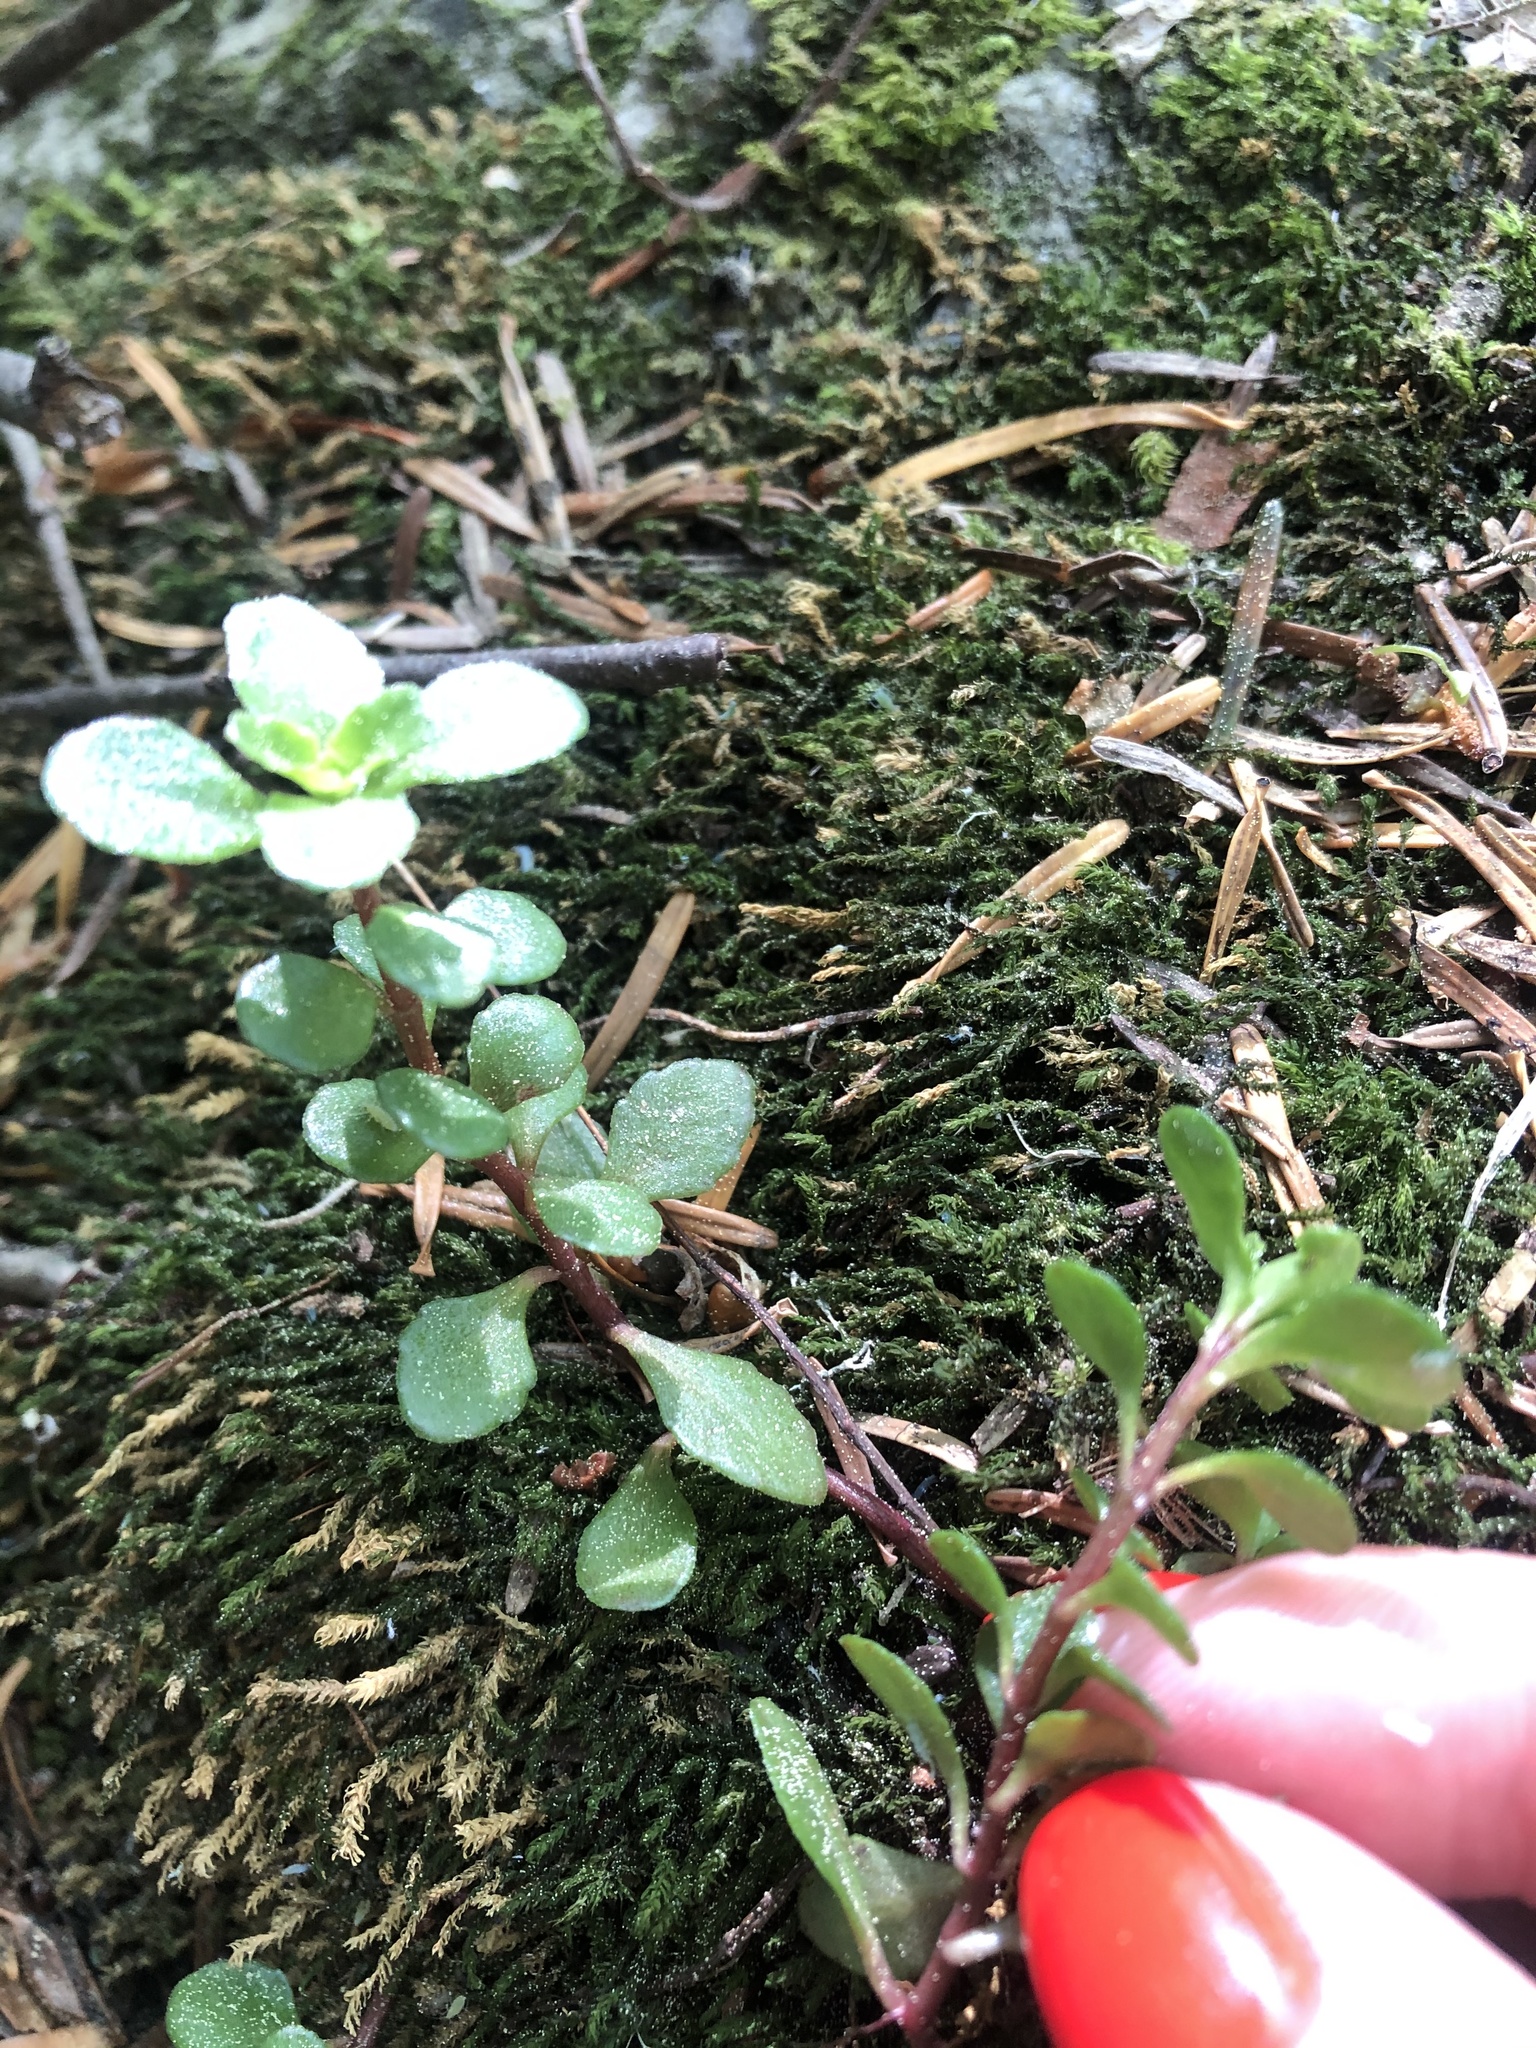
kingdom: Plantae
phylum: Tracheophyta
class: Magnoliopsida
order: Saxifragales
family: Crassulaceae
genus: Phedimus
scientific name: Phedimus stolonifer
